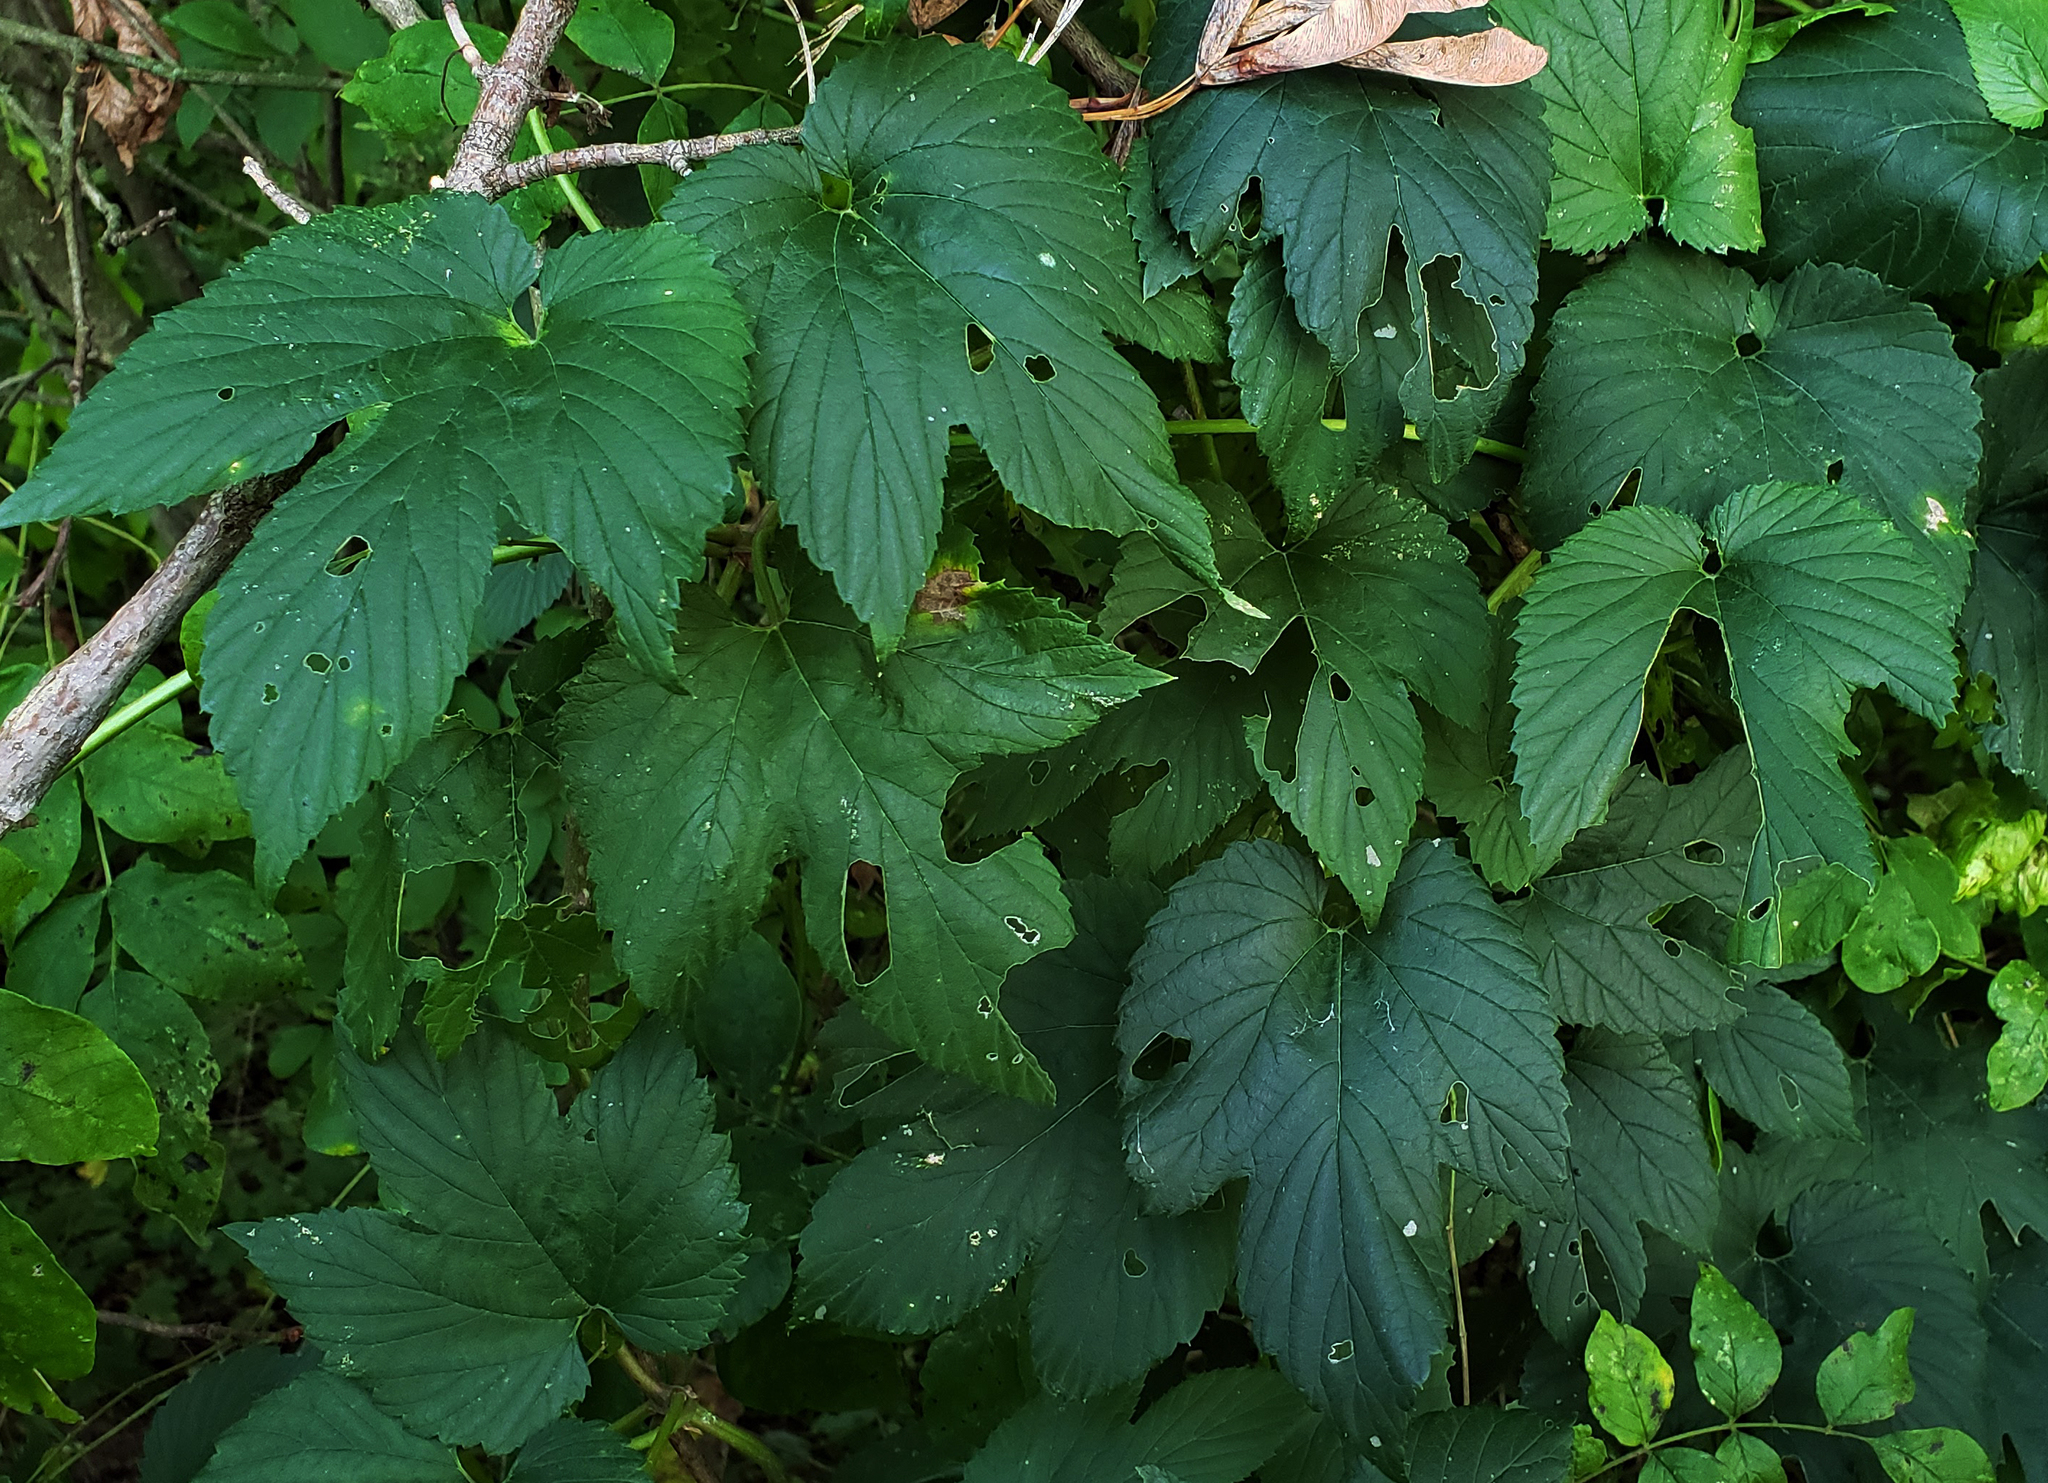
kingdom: Plantae
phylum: Tracheophyta
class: Magnoliopsida
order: Rosales
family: Cannabaceae
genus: Humulus
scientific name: Humulus lupulus
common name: Hop
